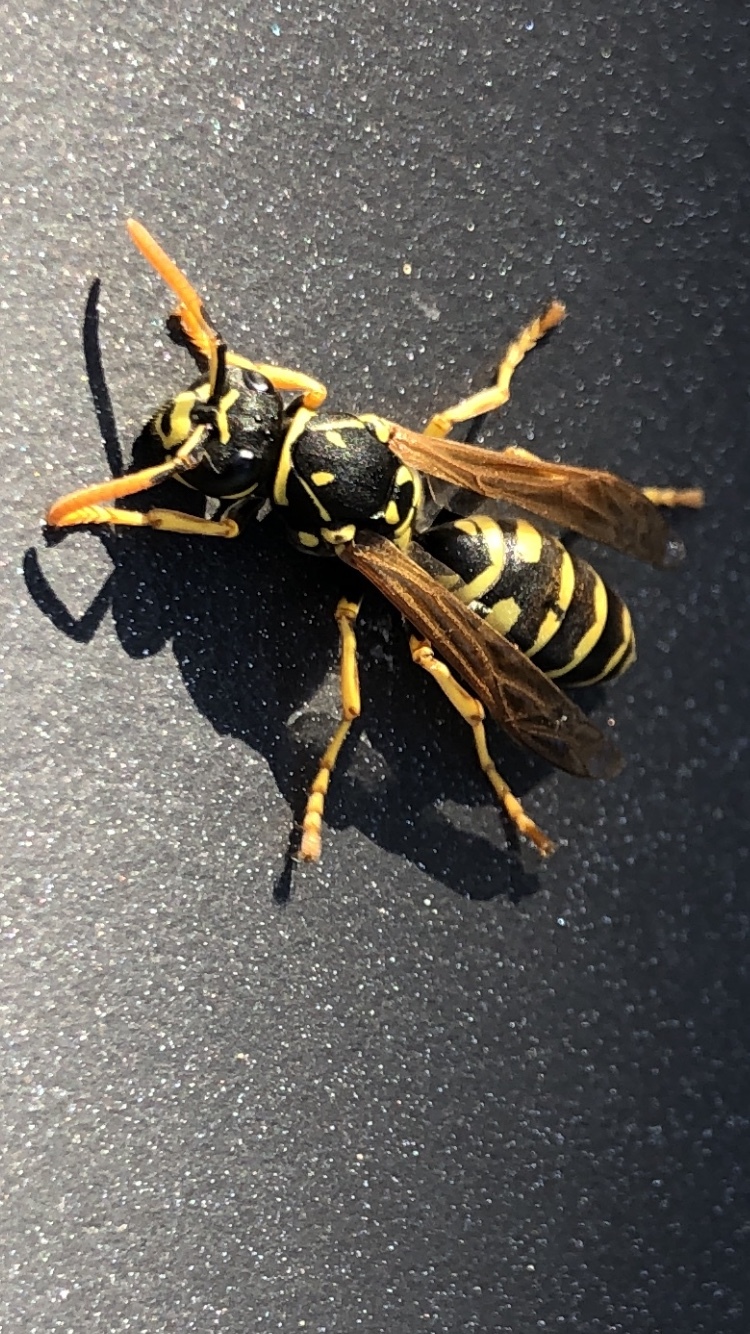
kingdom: Animalia
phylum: Arthropoda
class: Insecta
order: Hymenoptera
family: Eumenidae
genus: Polistes
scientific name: Polistes dominula
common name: Paper wasp
